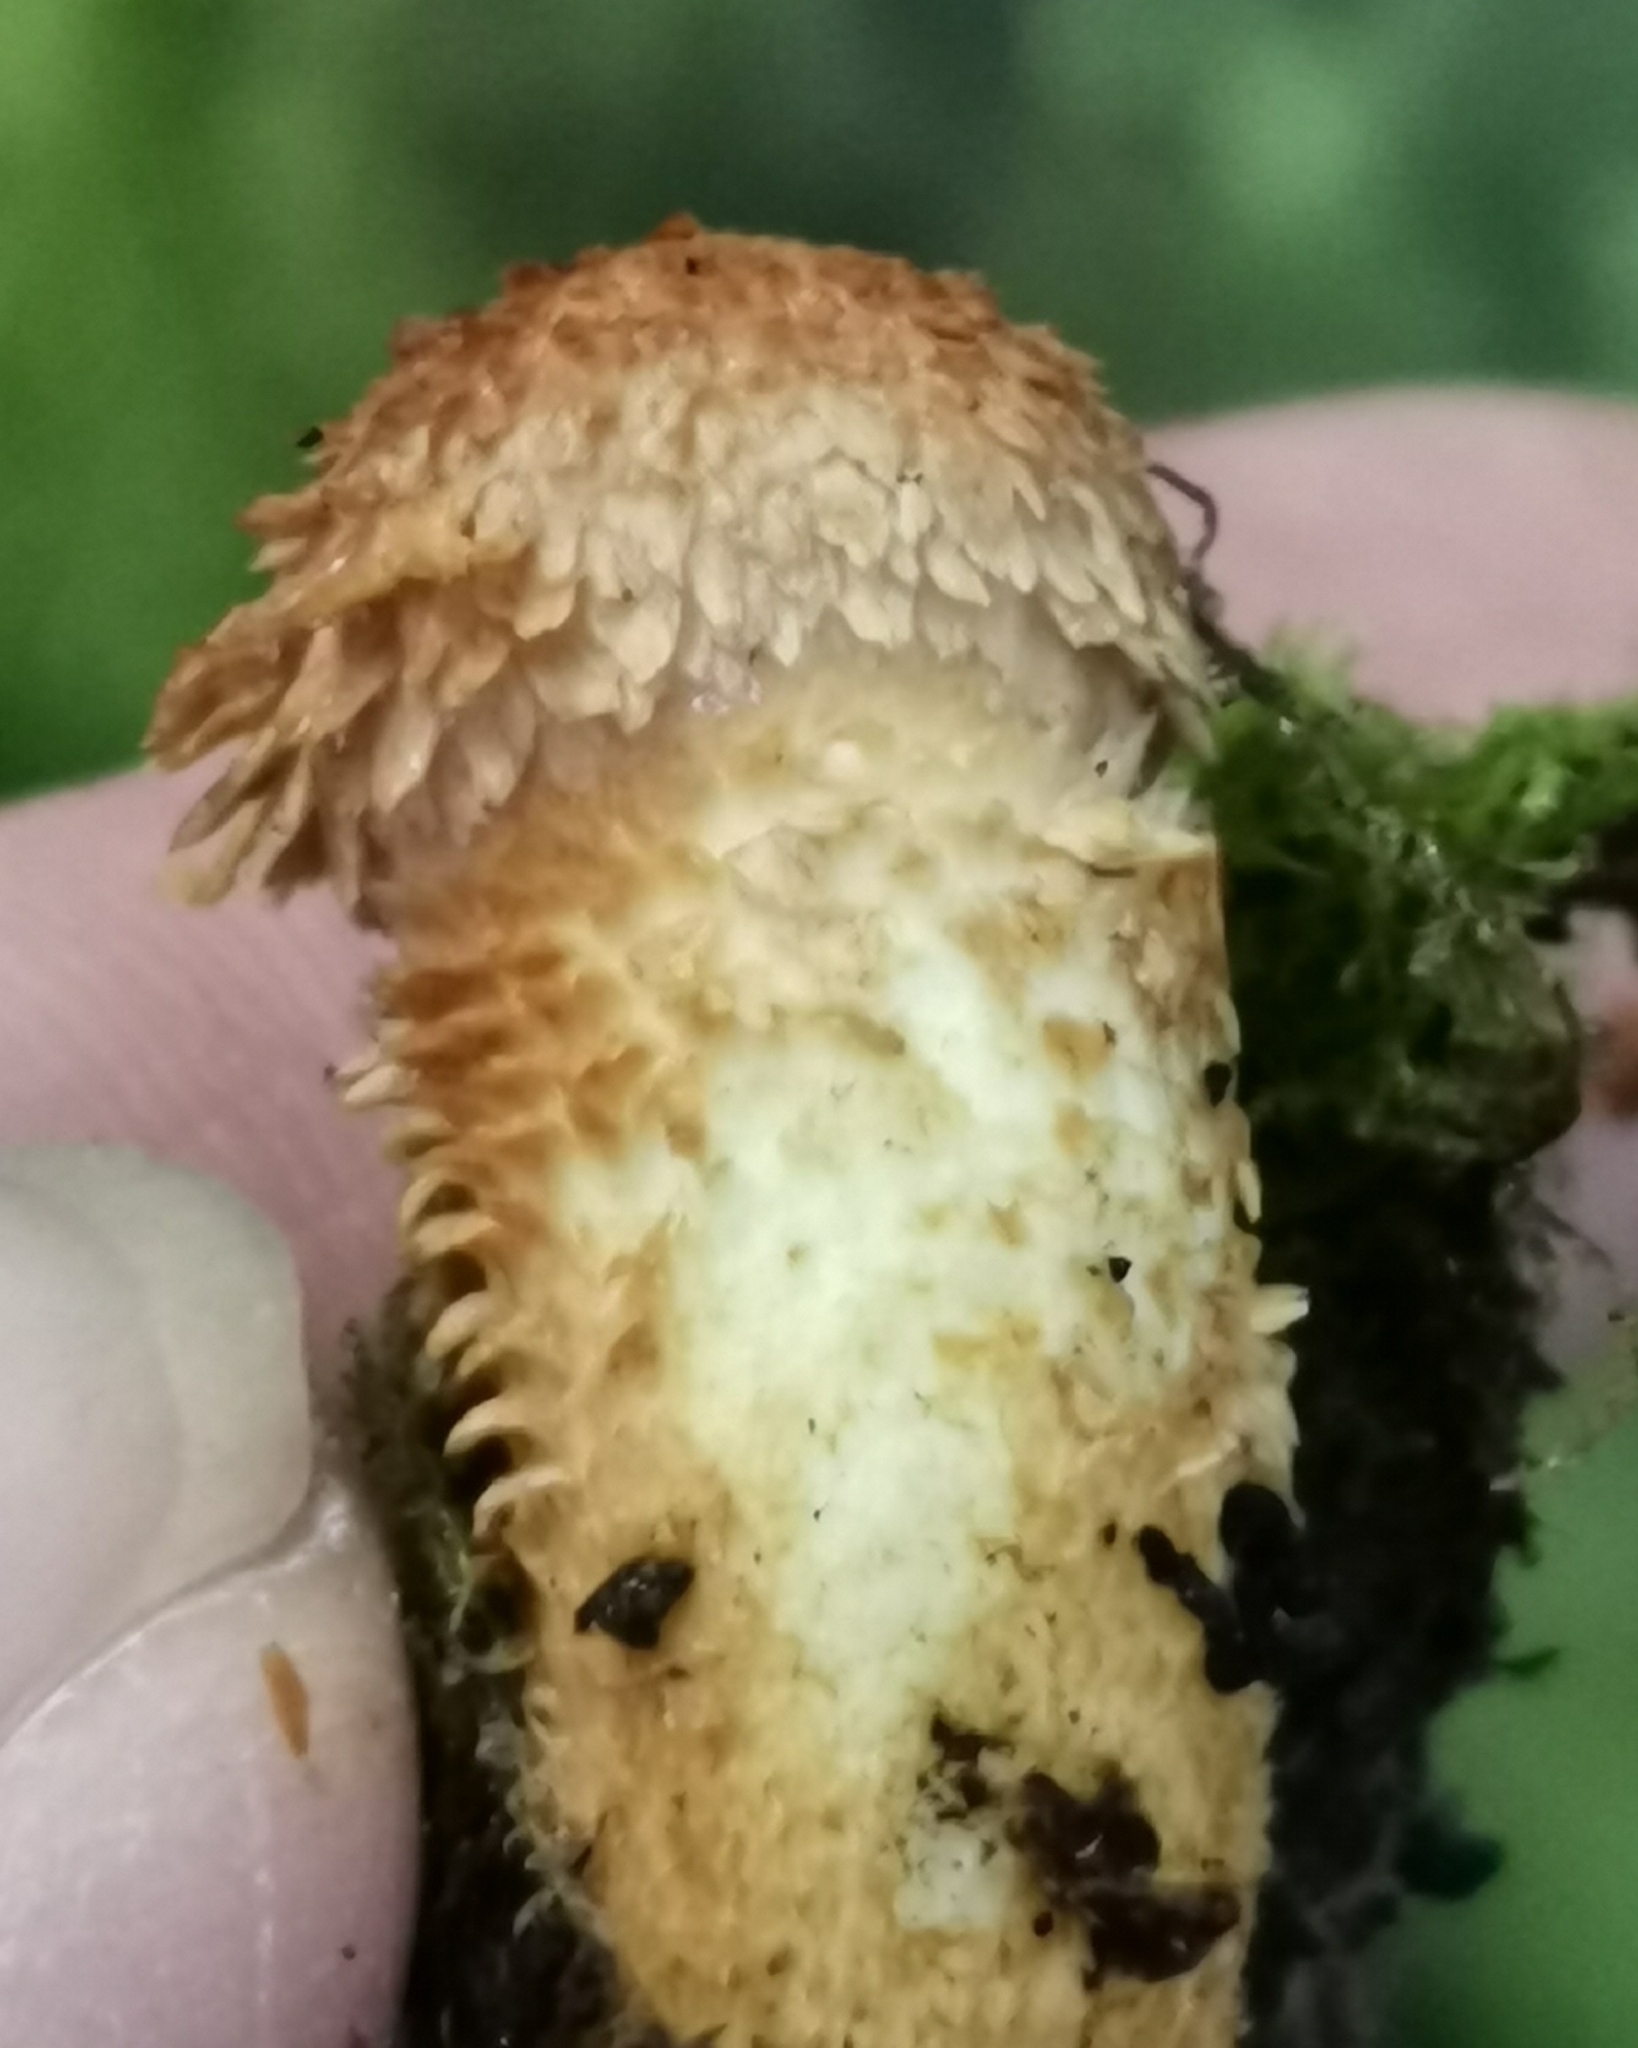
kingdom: Fungi
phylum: Basidiomycota
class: Agaricomycetes
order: Agaricales
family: Strophariaceae
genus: Pholiota
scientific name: Pholiota squarrosa
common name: Shaggy pholiota
